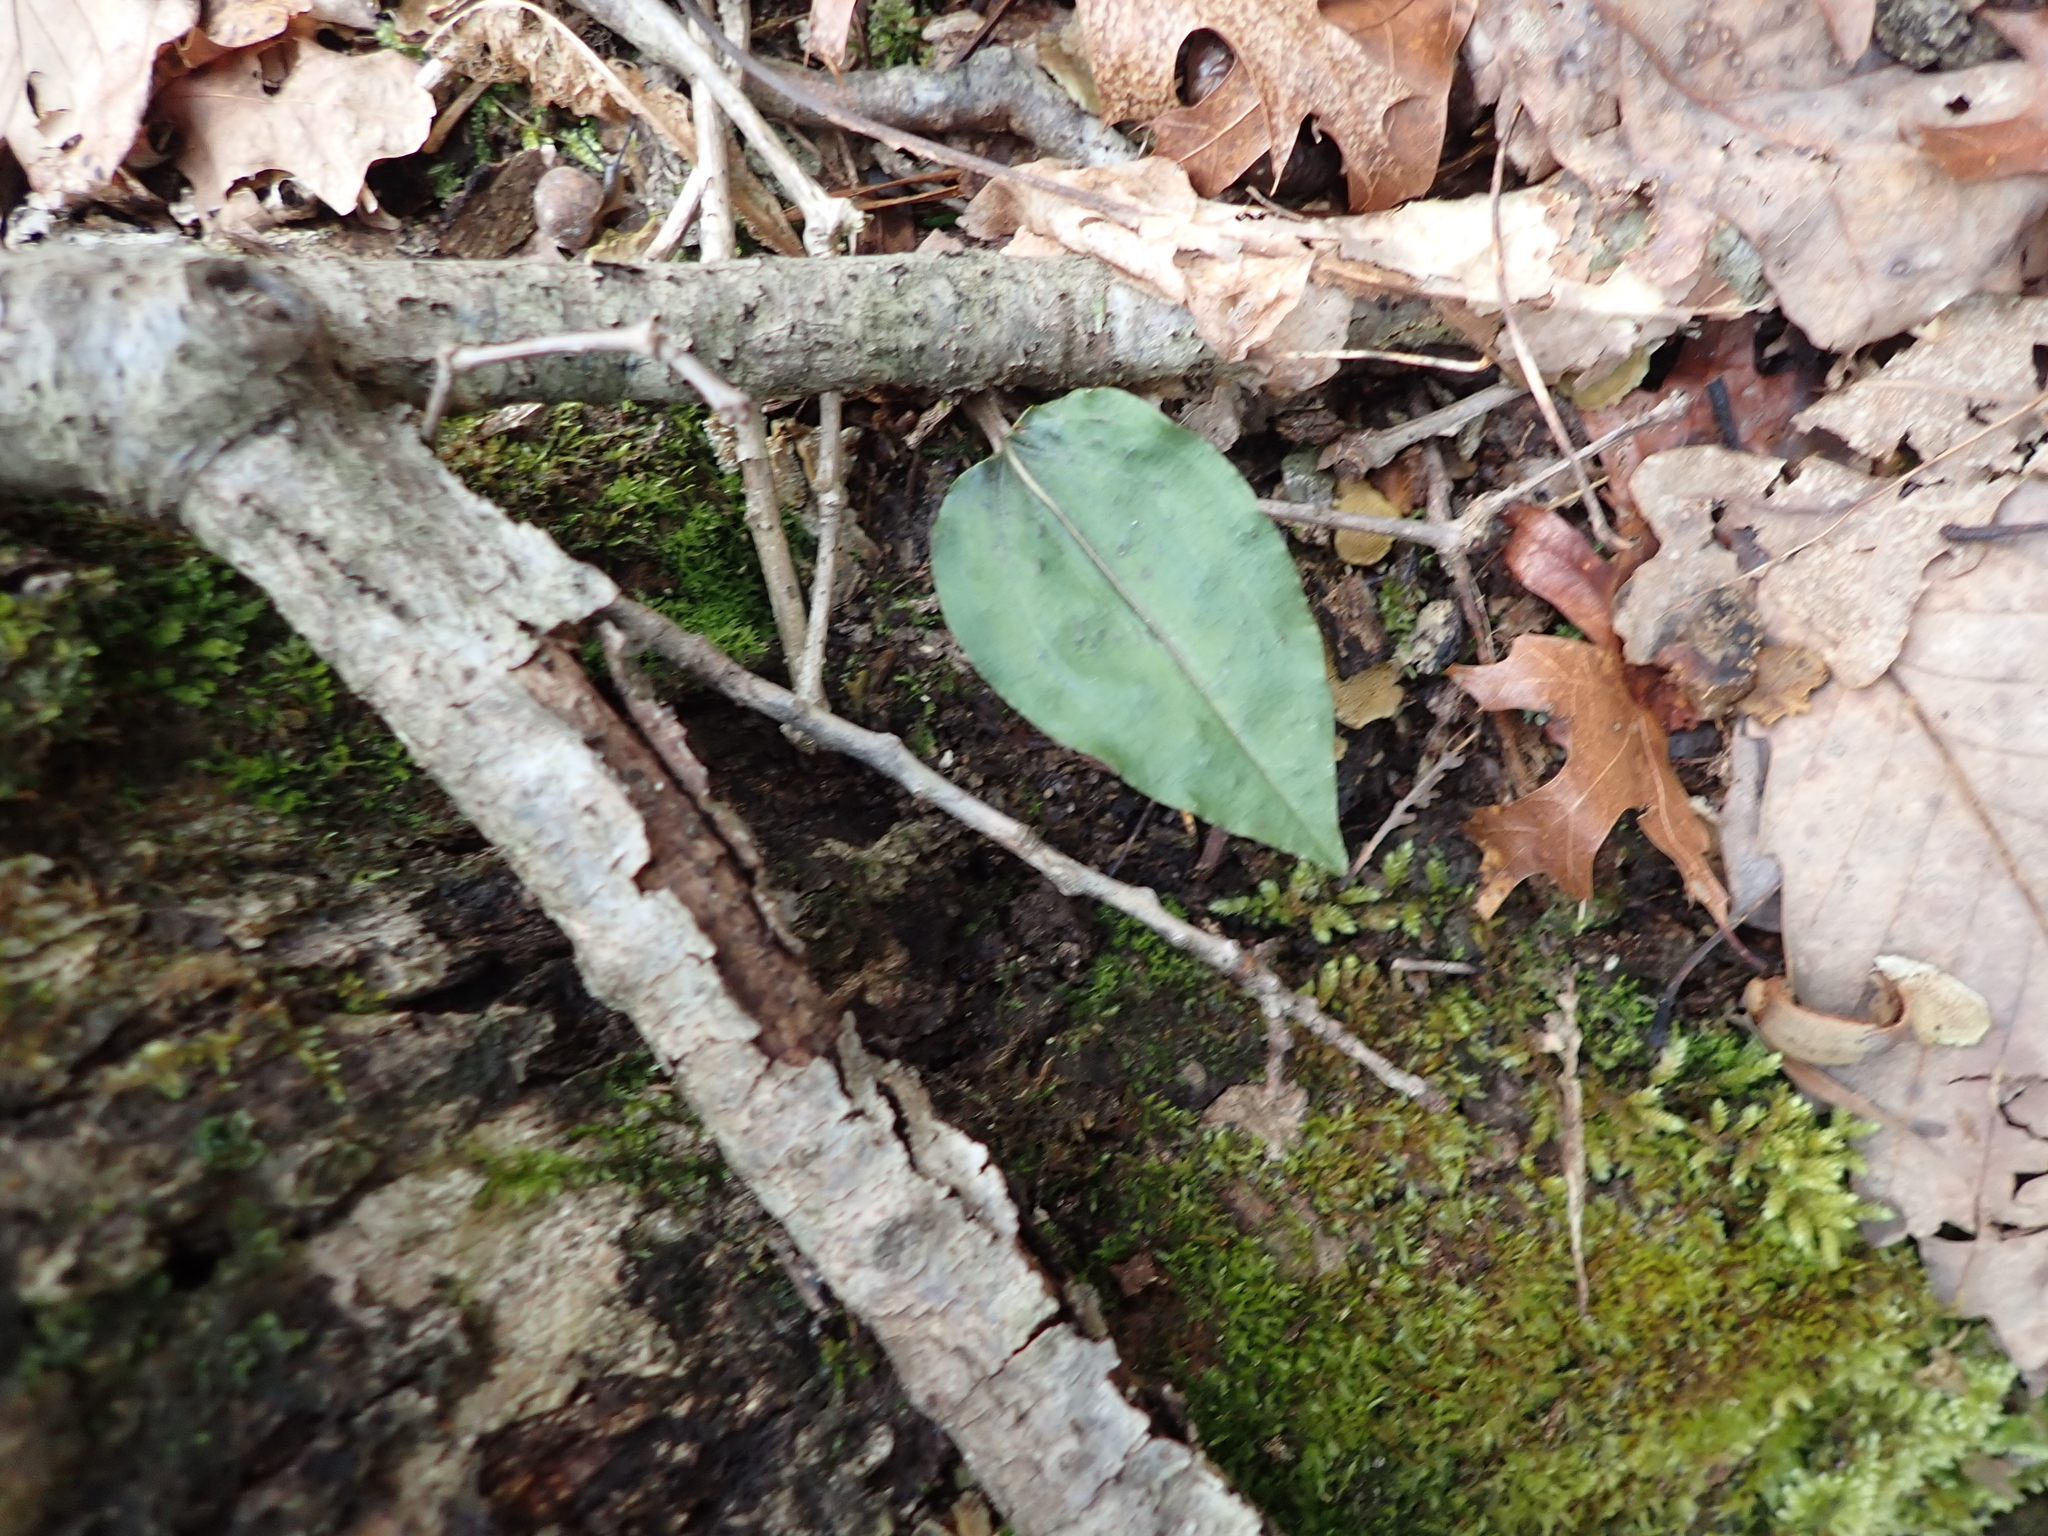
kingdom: Plantae
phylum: Tracheophyta
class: Liliopsida
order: Asparagales
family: Orchidaceae
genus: Tipularia
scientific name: Tipularia discolor
